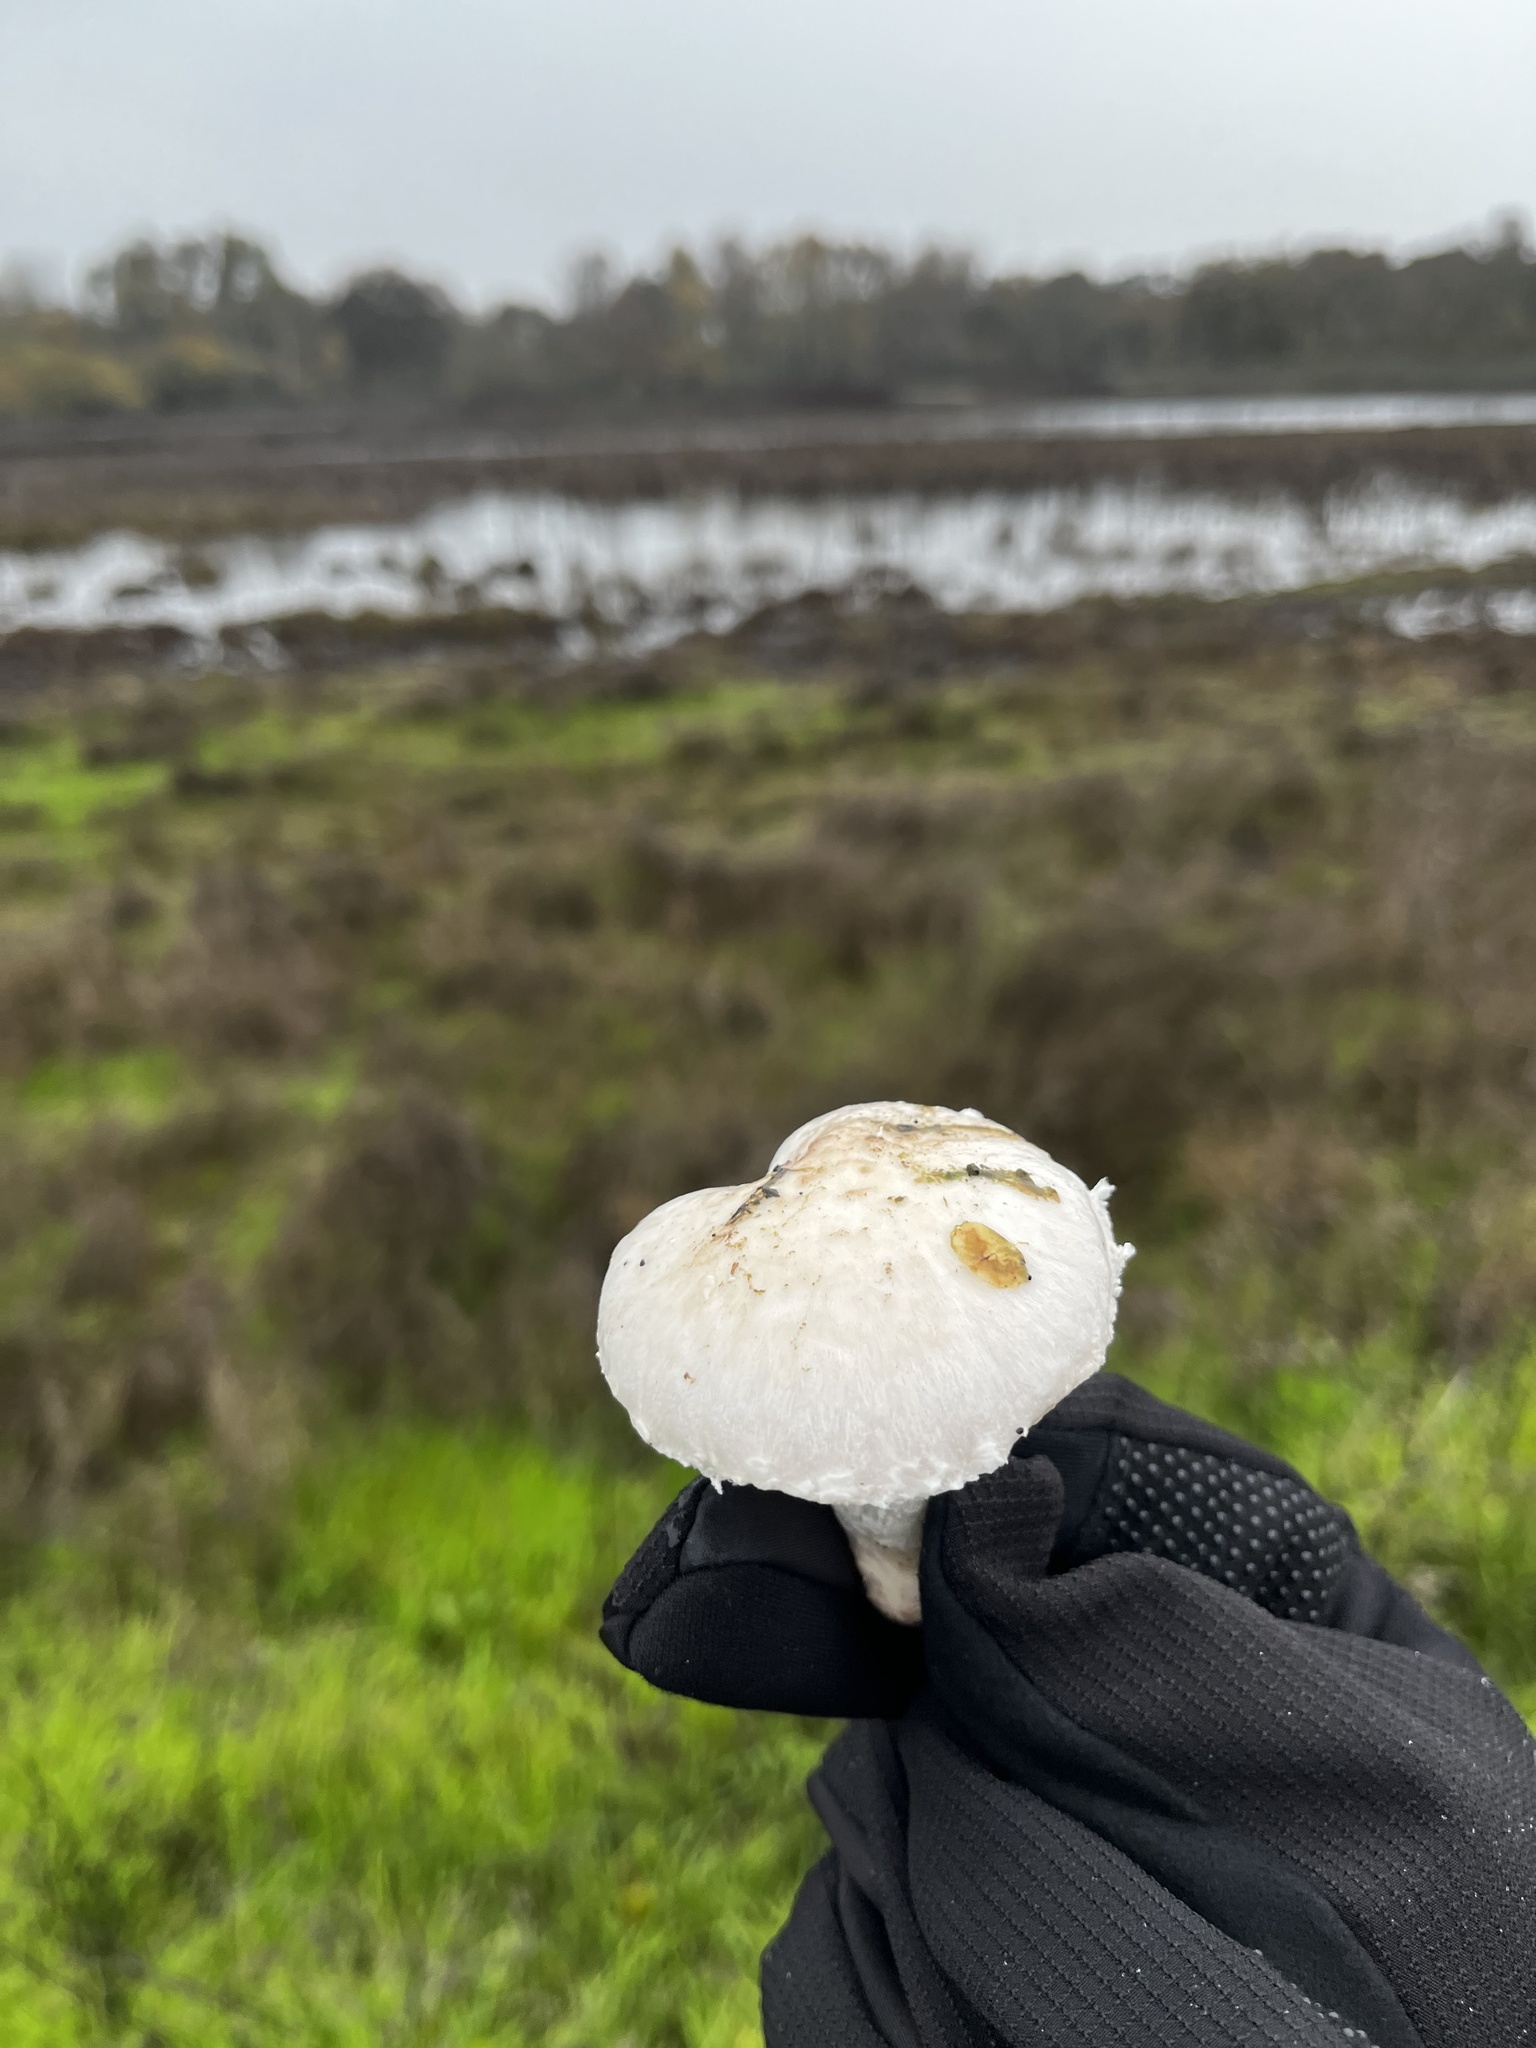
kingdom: Fungi
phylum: Basidiomycota
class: Agaricomycetes
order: Agaricales
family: Agaricaceae
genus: Agaricus
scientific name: Agaricus campestris
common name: Field mushroom
